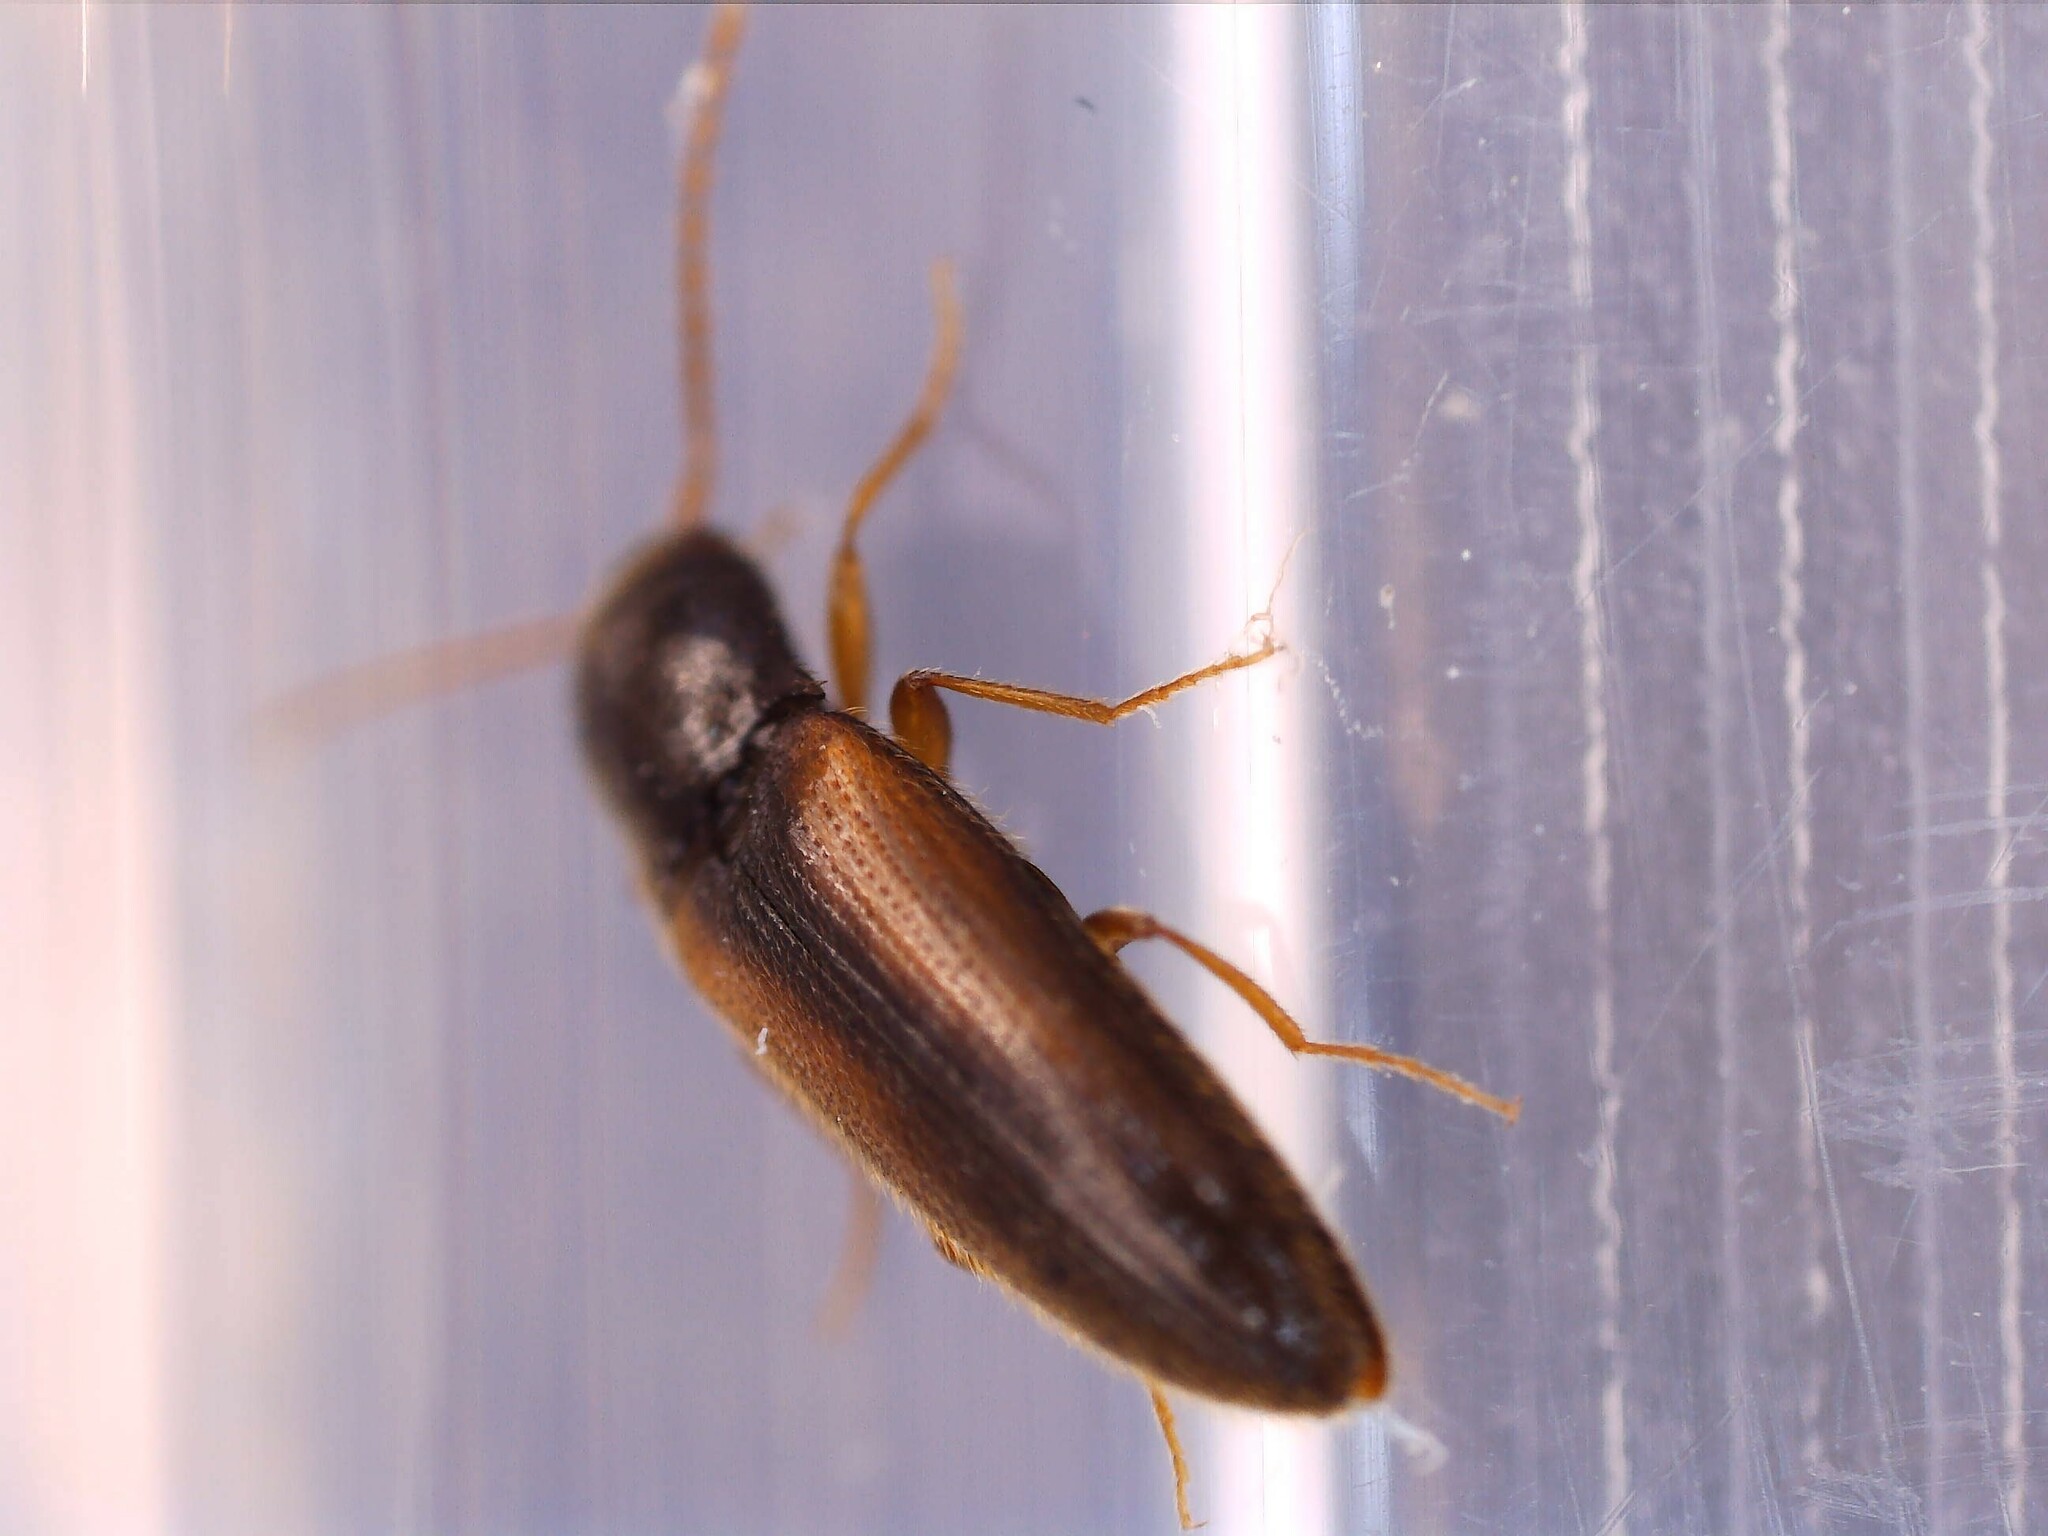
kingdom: Animalia
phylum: Arthropoda
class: Insecta
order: Coleoptera
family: Elateridae
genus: Adrastus
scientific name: Adrastus pallens
